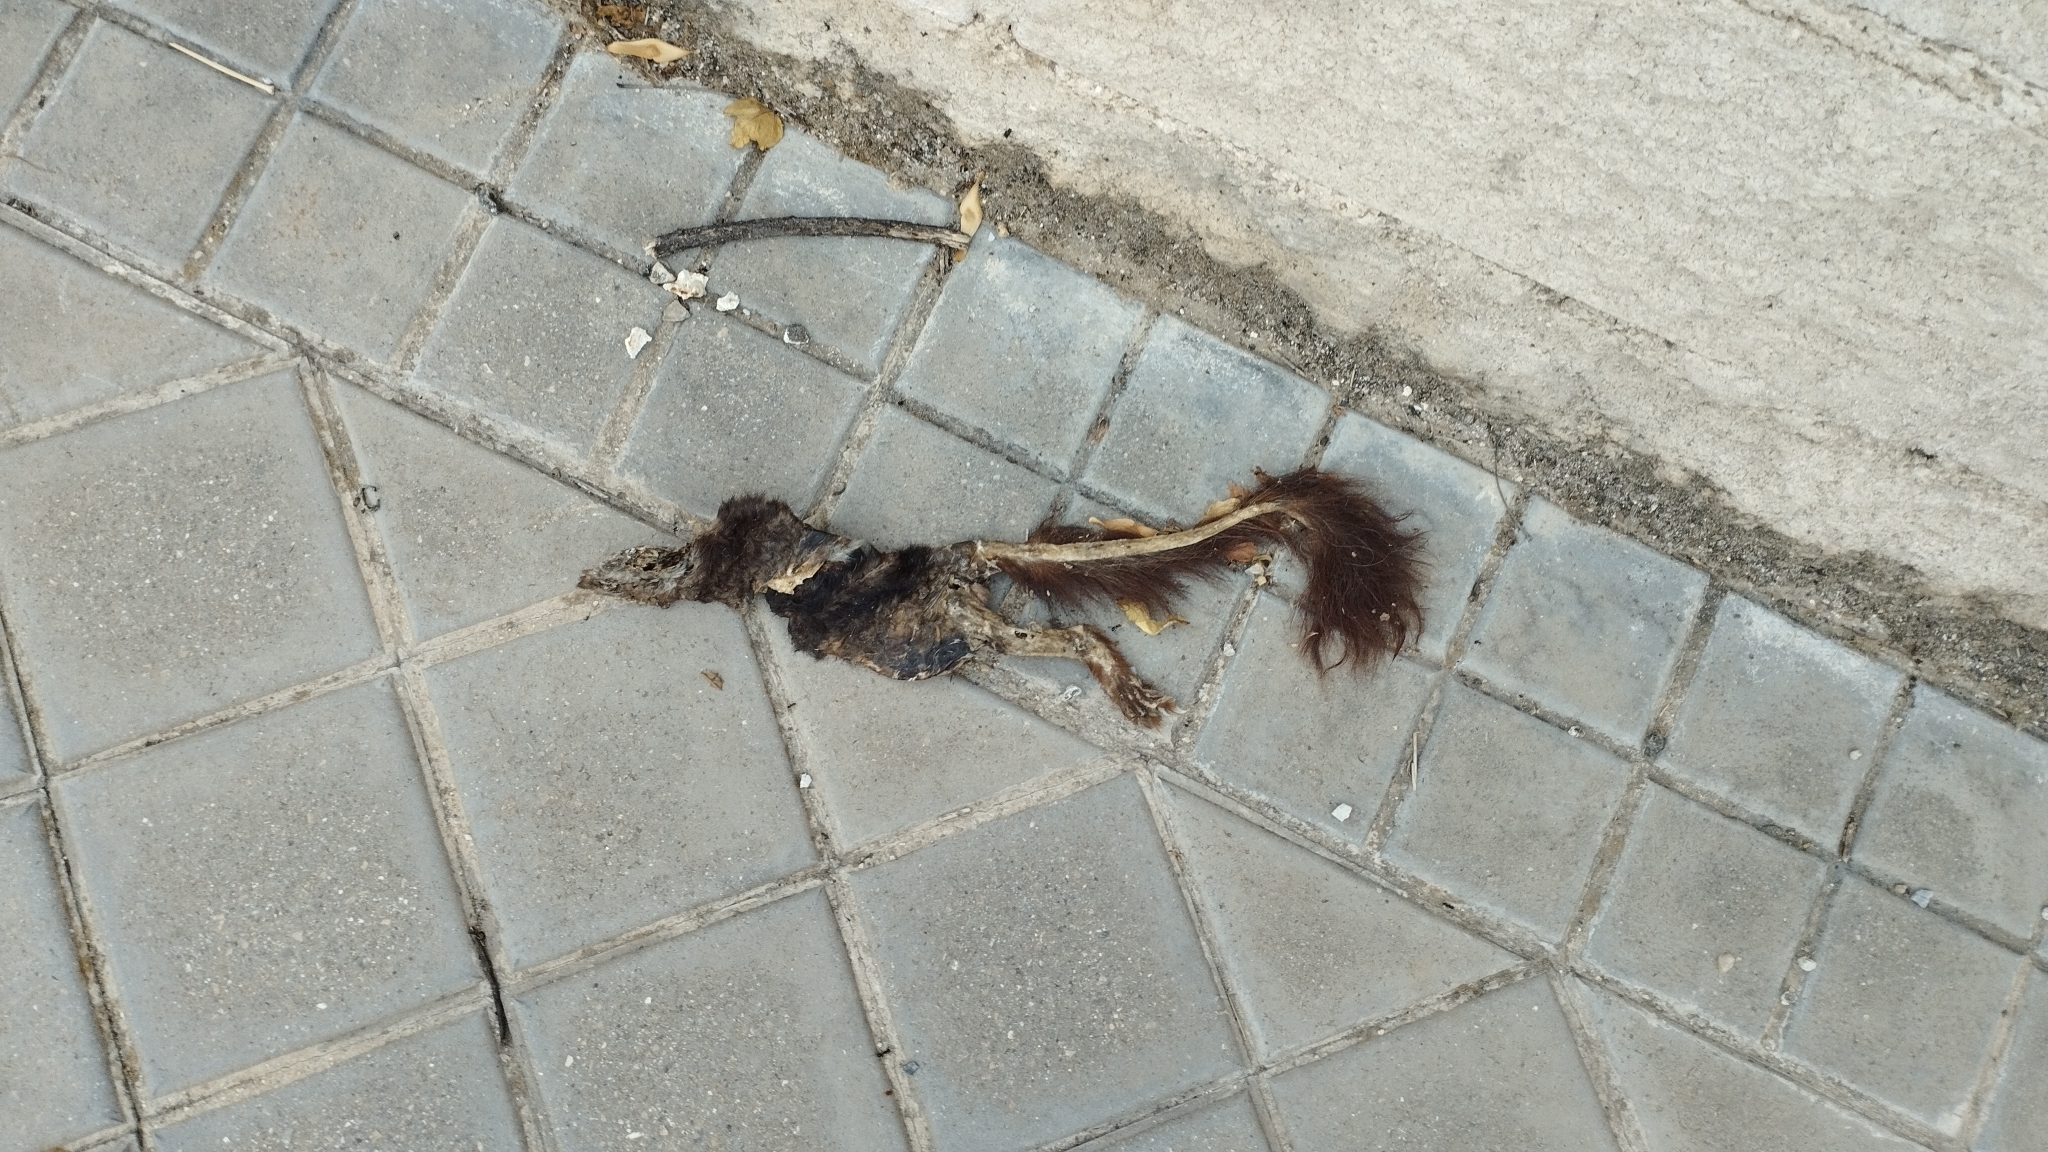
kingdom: Animalia
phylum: Chordata
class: Mammalia
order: Rodentia
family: Sciuridae
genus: Sciurus
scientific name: Sciurus vulgaris
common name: Eurasian red squirrel
